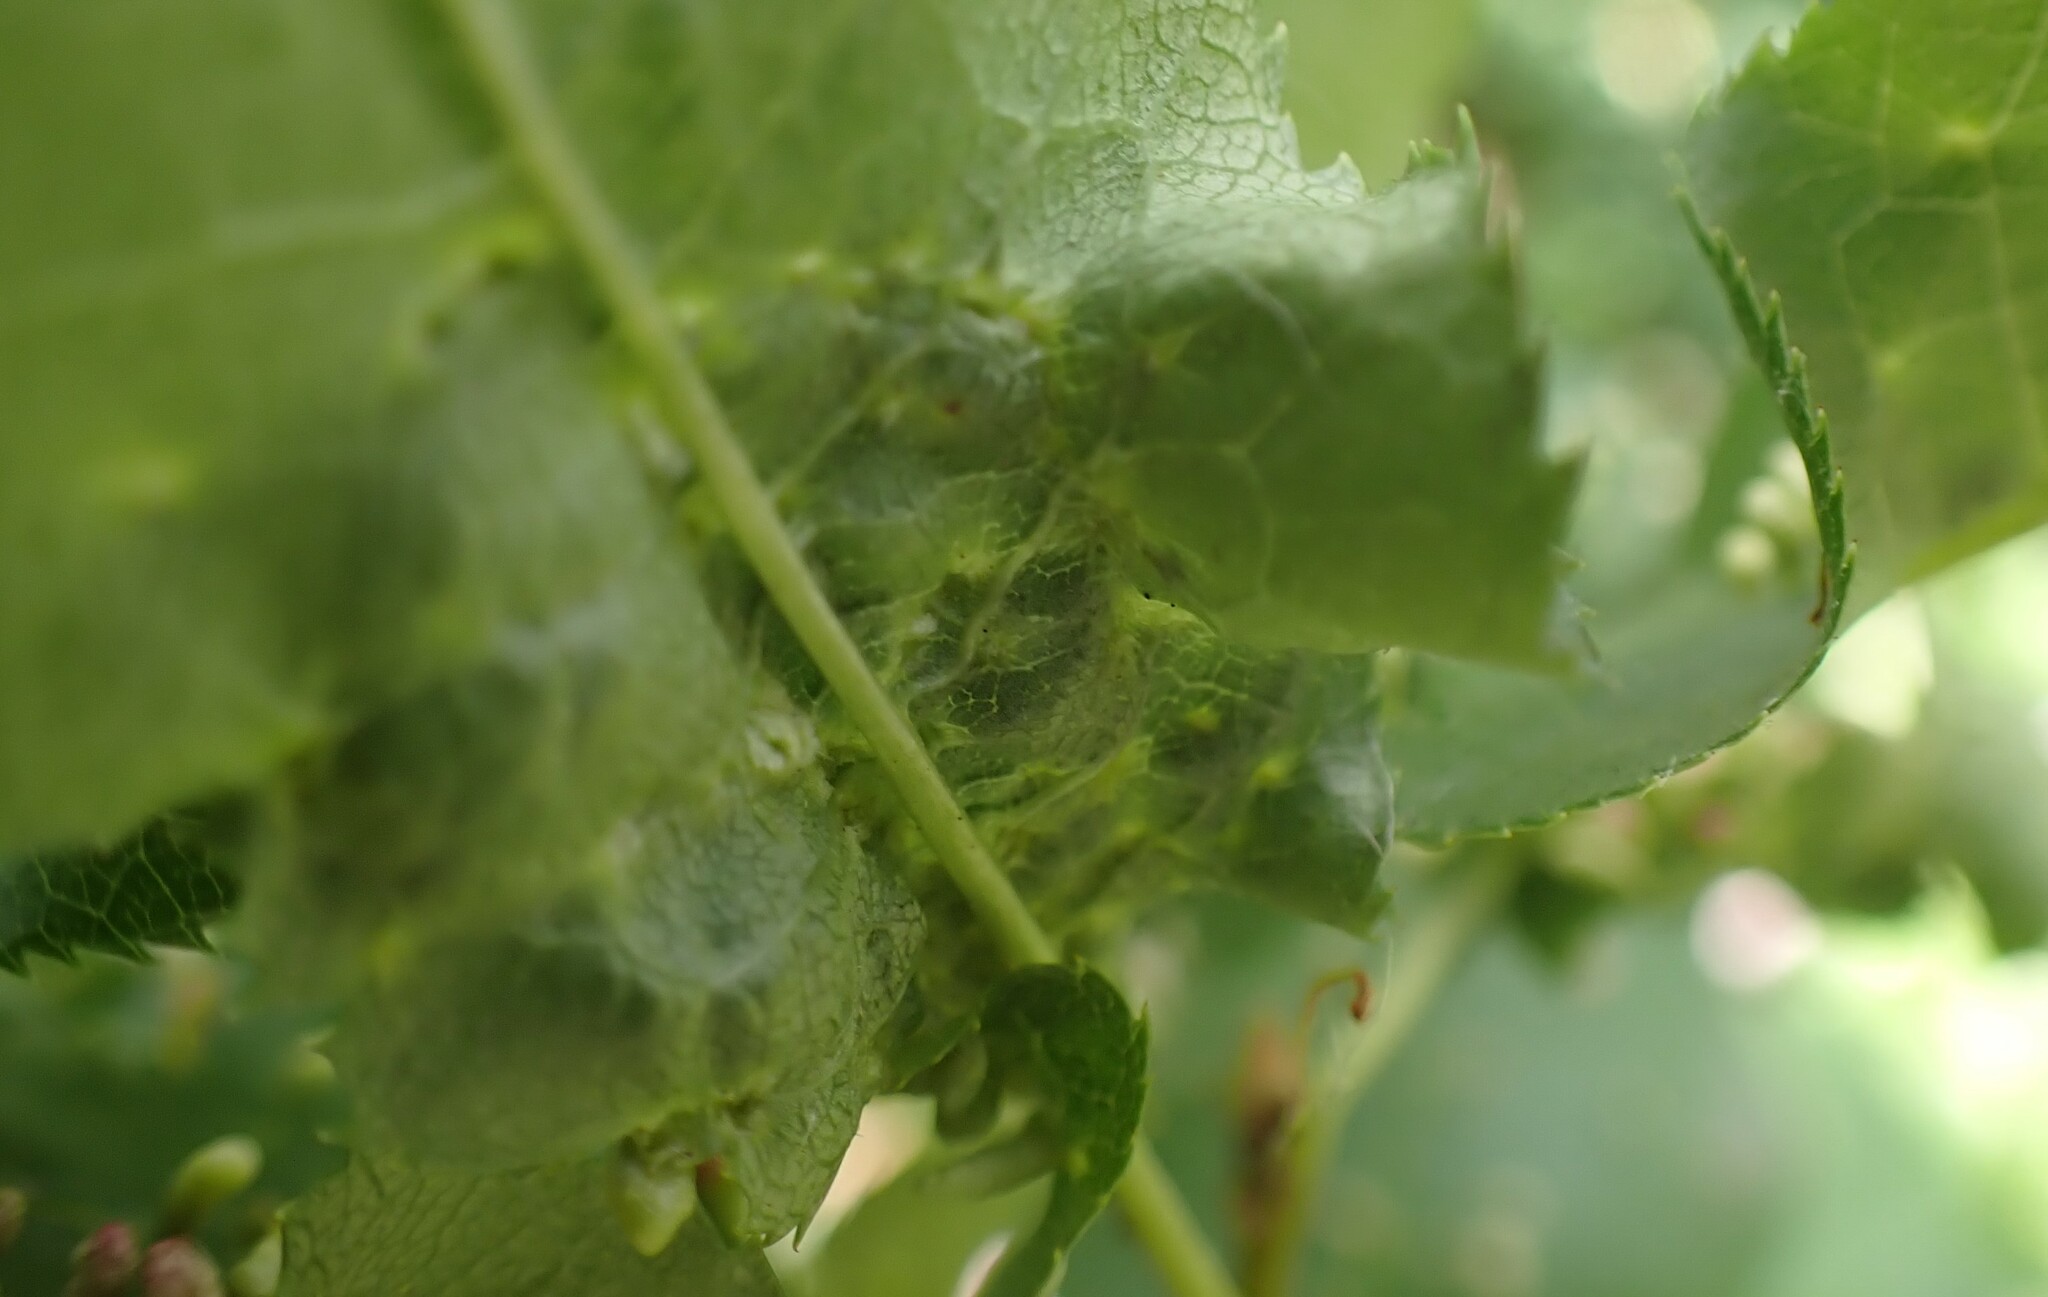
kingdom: Animalia
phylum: Arthropoda
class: Arachnida
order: Trombidiformes
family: Eriophyidae
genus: Eriophyes
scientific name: Eriophyes emarginatae
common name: Plum leaf gall mite
